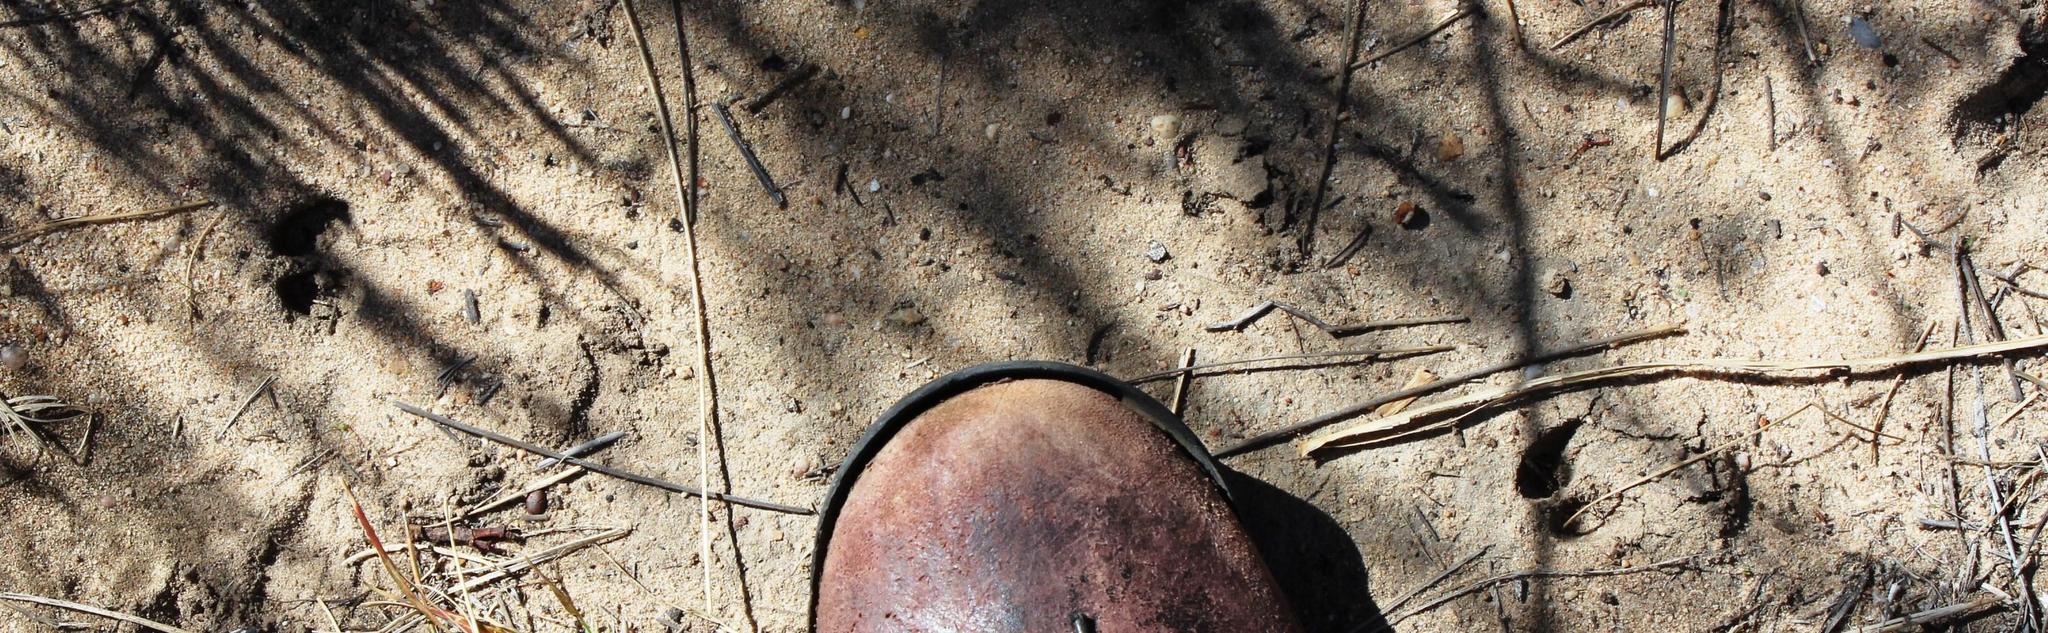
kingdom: Animalia
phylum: Chordata
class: Mammalia
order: Artiodactyla
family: Bovidae
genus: Oreotragus
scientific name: Oreotragus oreotragus
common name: Klipspringer
